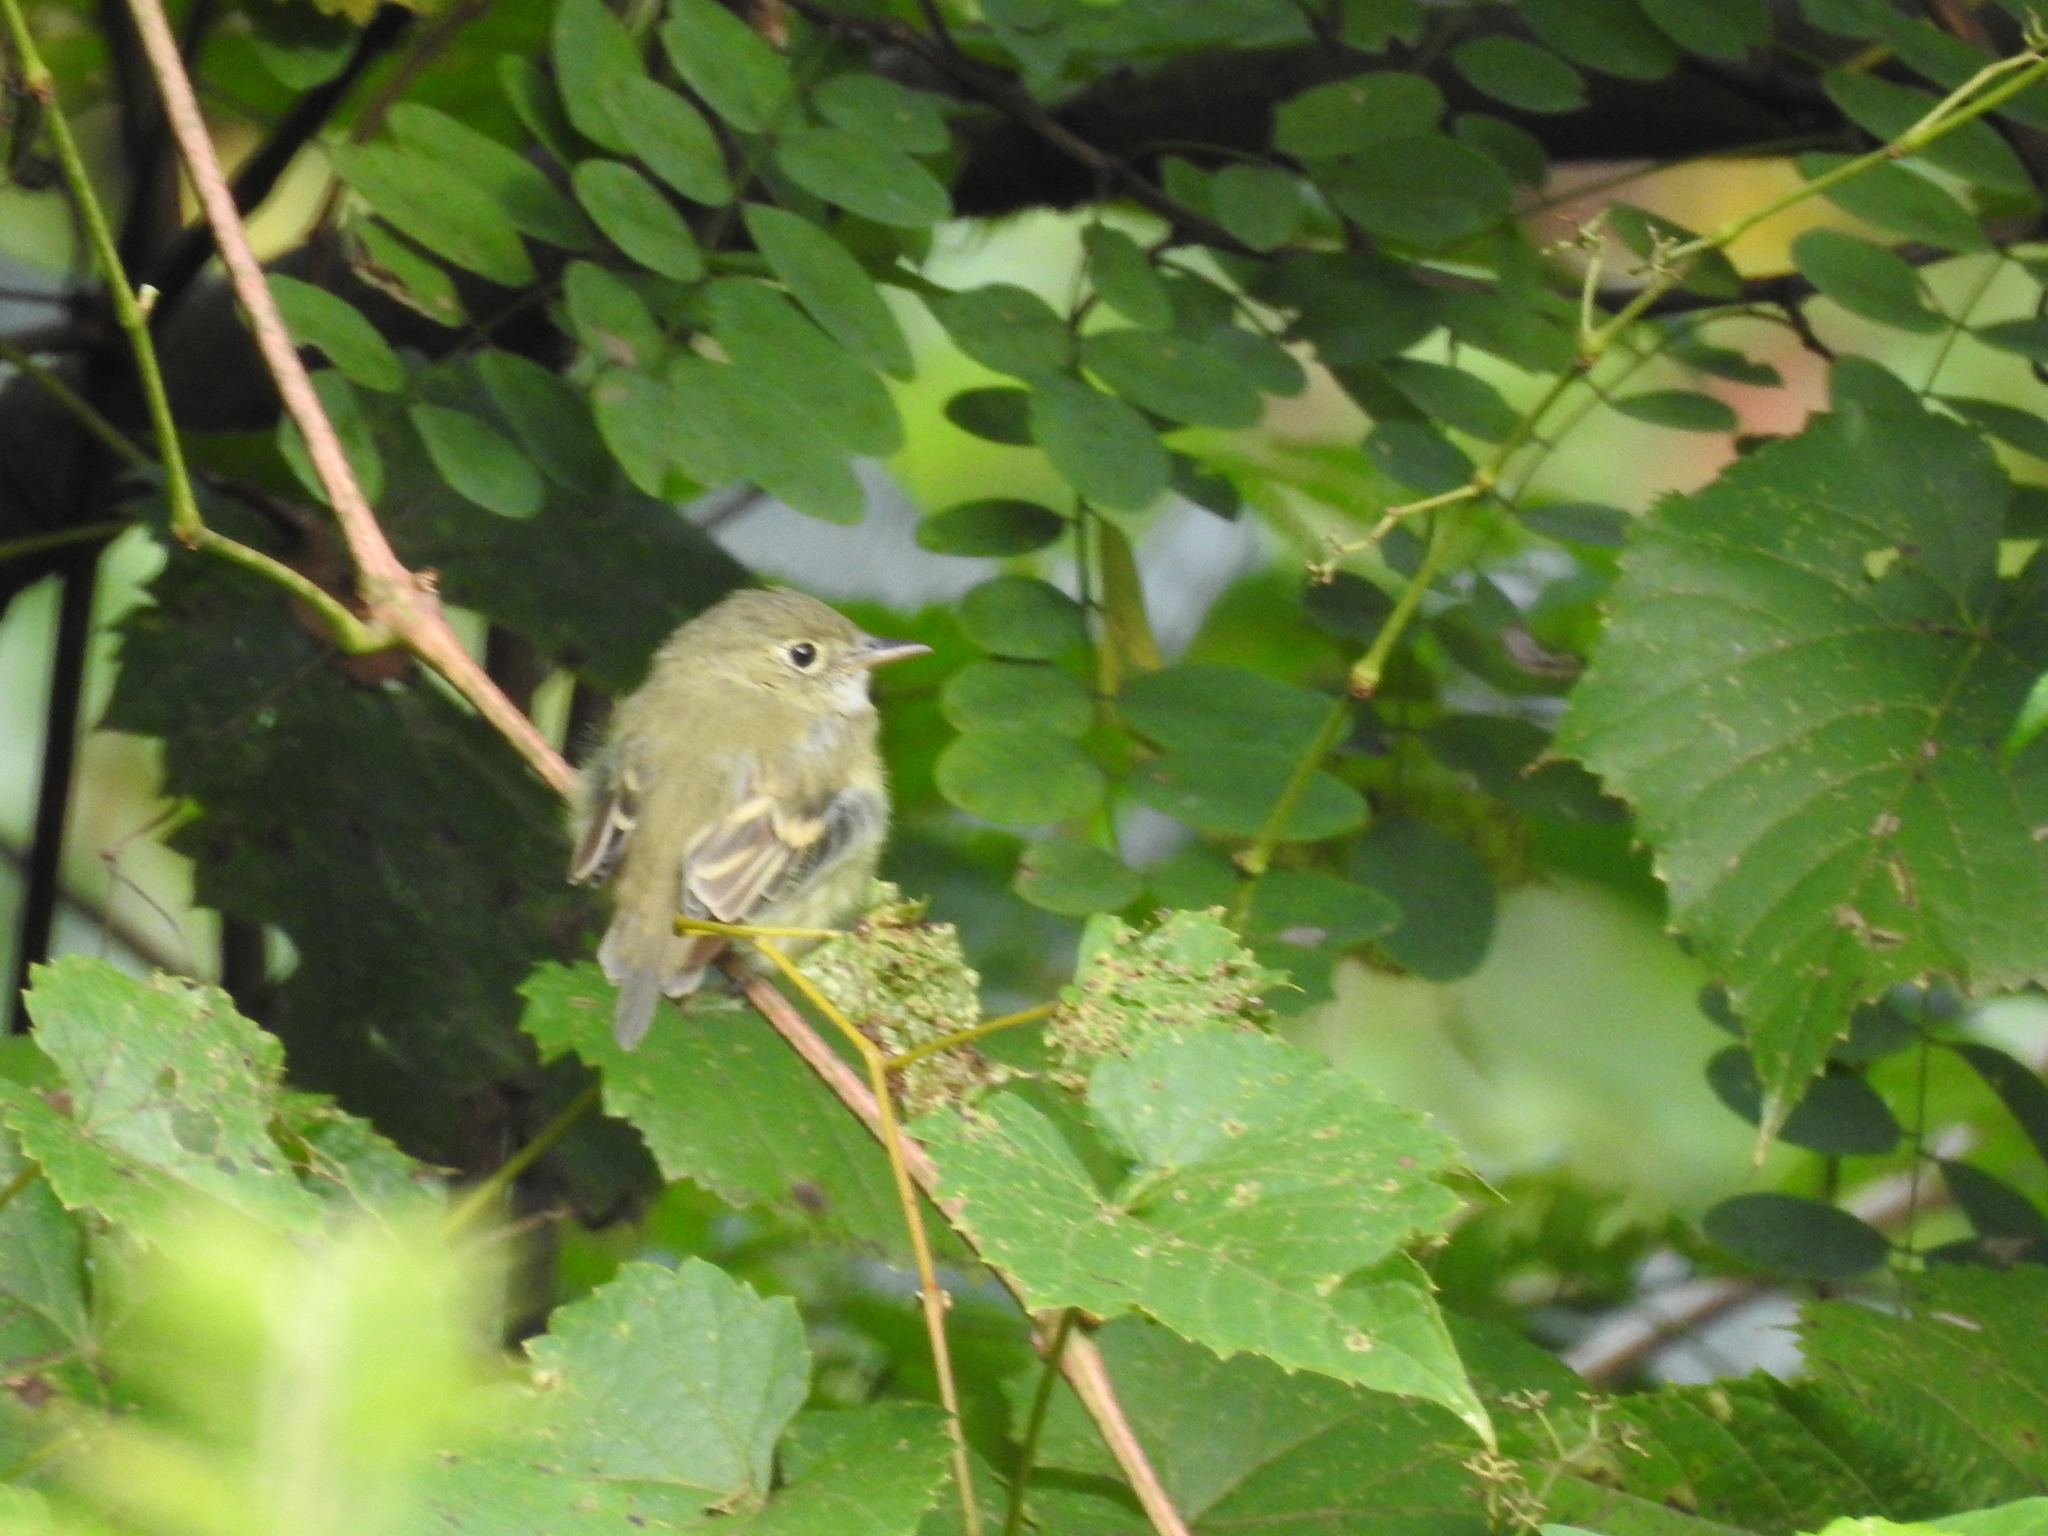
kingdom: Animalia
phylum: Chordata
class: Aves
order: Passeriformes
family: Tyrannidae
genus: Empidonax
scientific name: Empidonax virescens
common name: Acadian flycatcher
